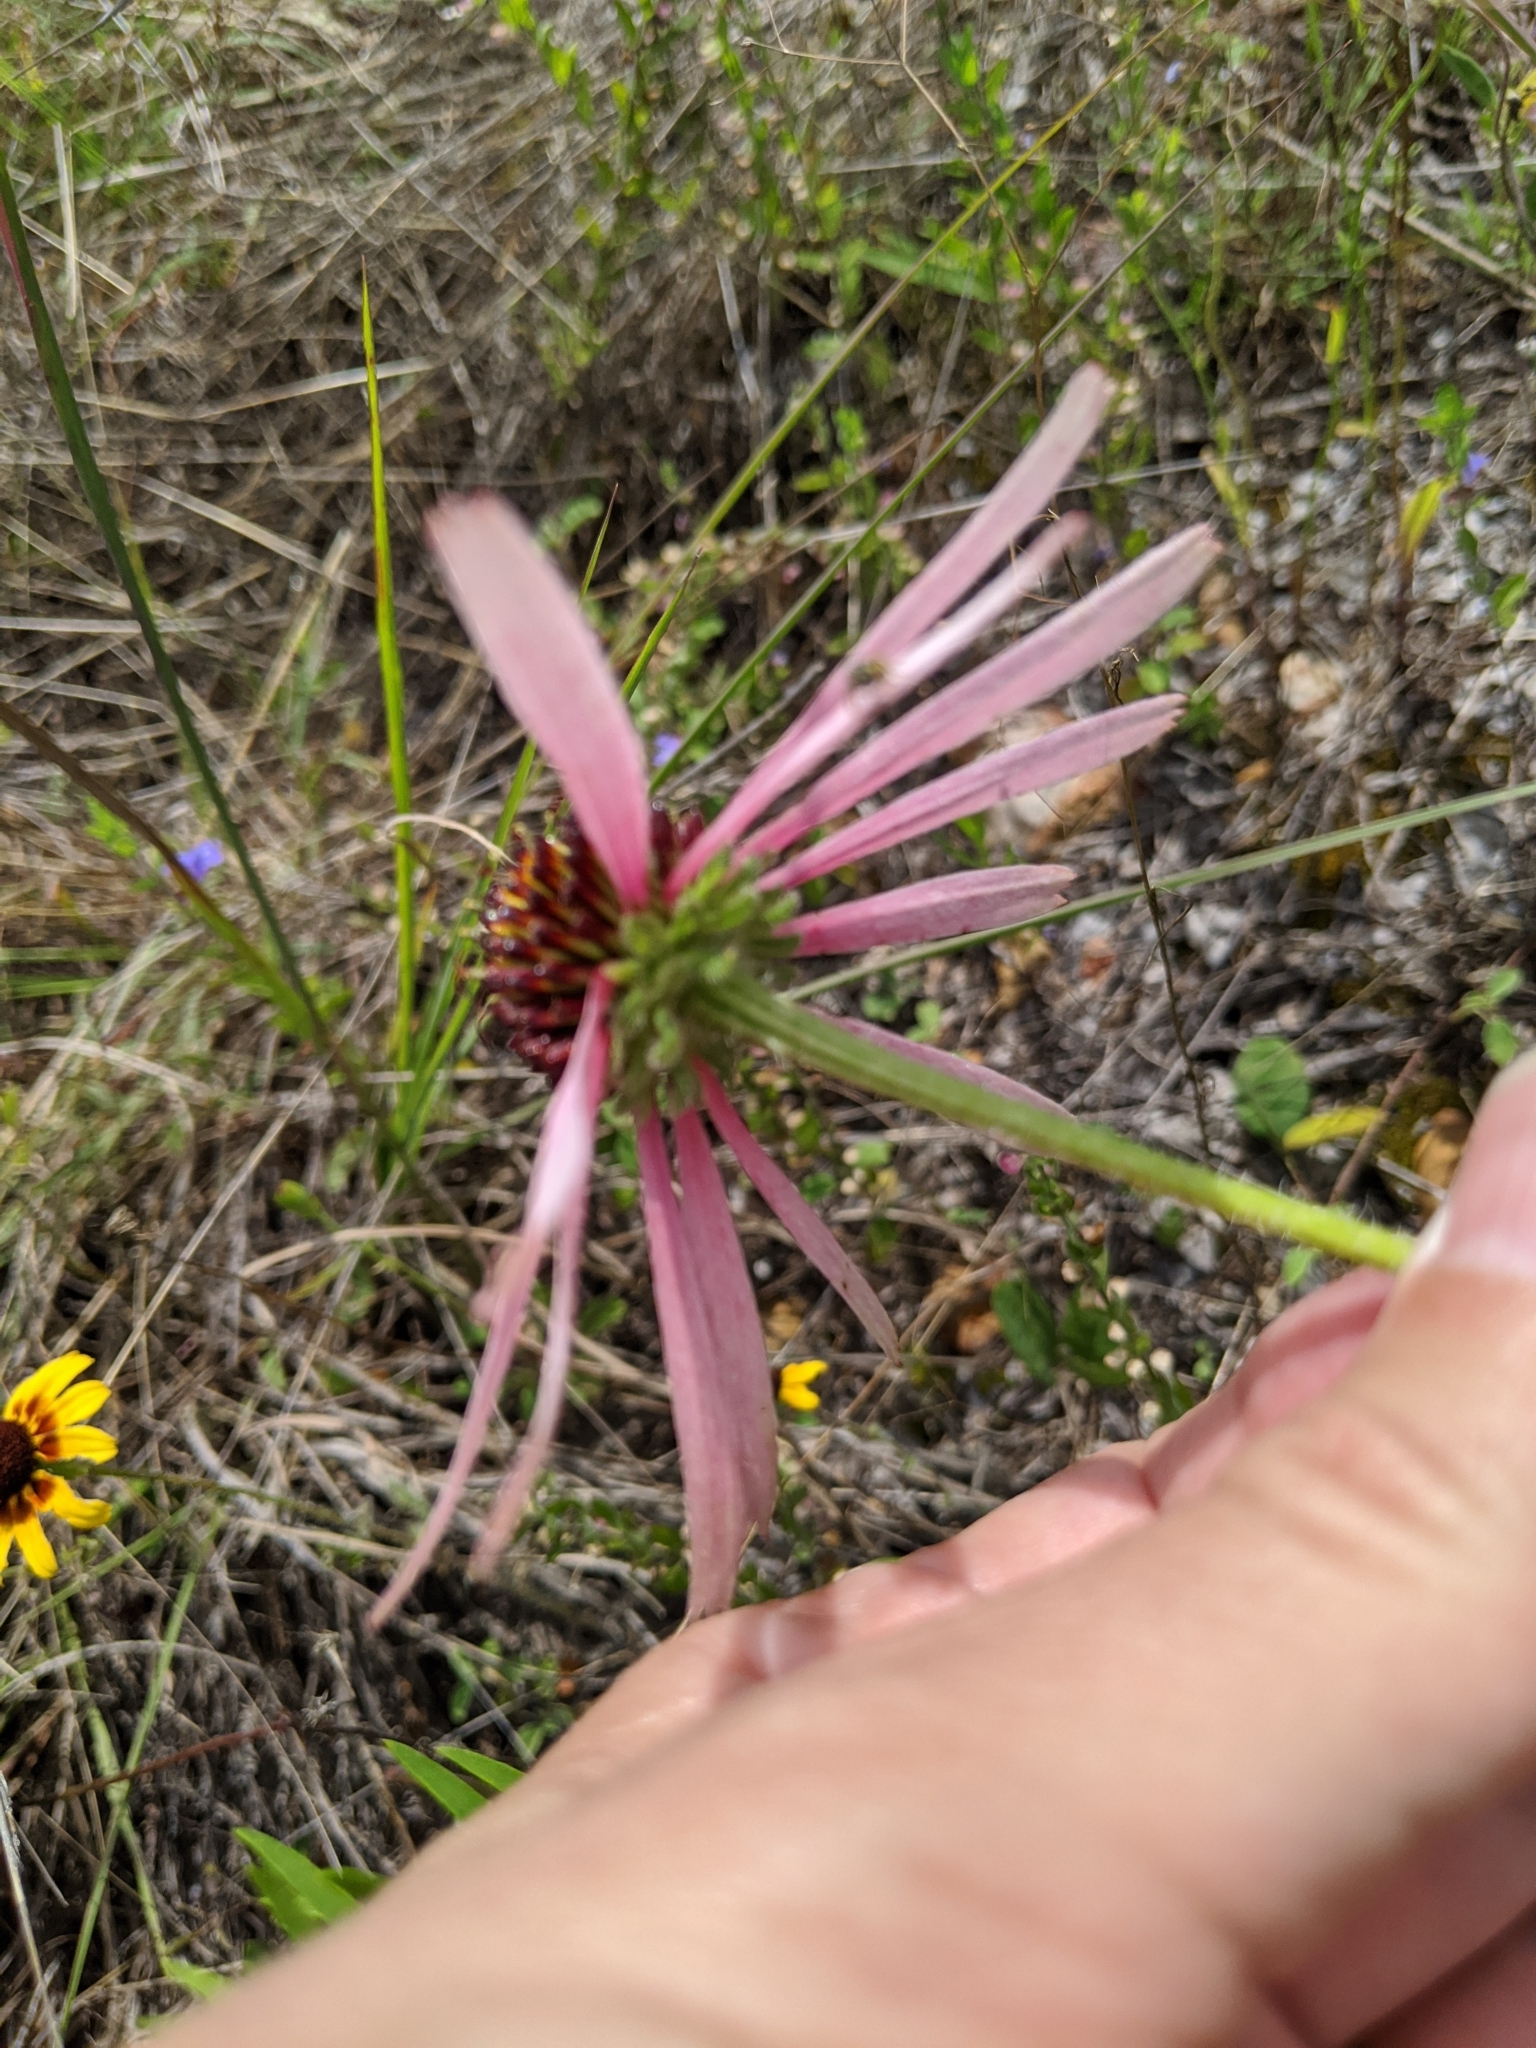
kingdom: Plantae
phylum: Tracheophyta
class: Magnoliopsida
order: Asterales
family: Asteraceae
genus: Echinacea
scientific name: Echinacea sanguinea
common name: Sanguine purple-coneflower
